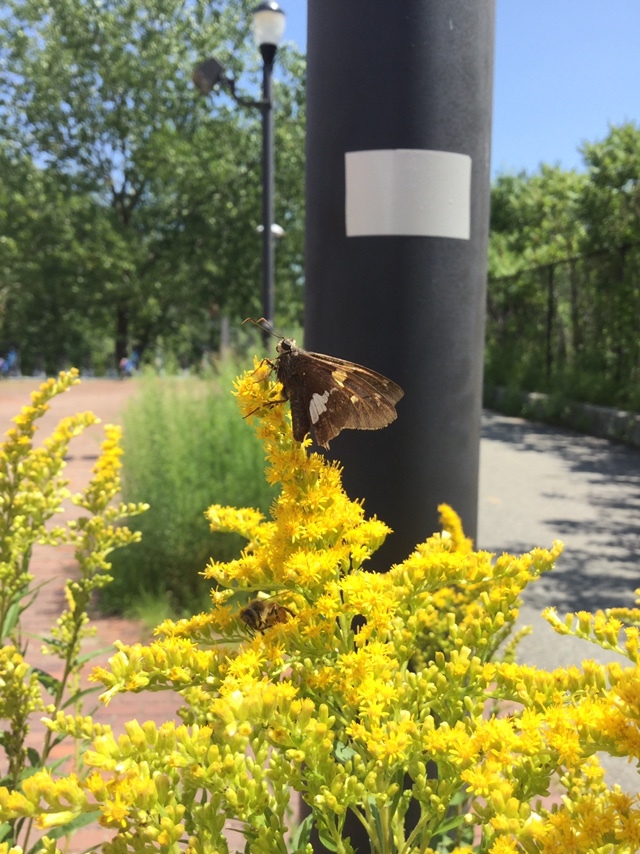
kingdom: Animalia
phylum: Arthropoda
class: Insecta
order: Lepidoptera
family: Hesperiidae
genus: Epargyreus
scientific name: Epargyreus clarus
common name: Silver-spotted skipper
